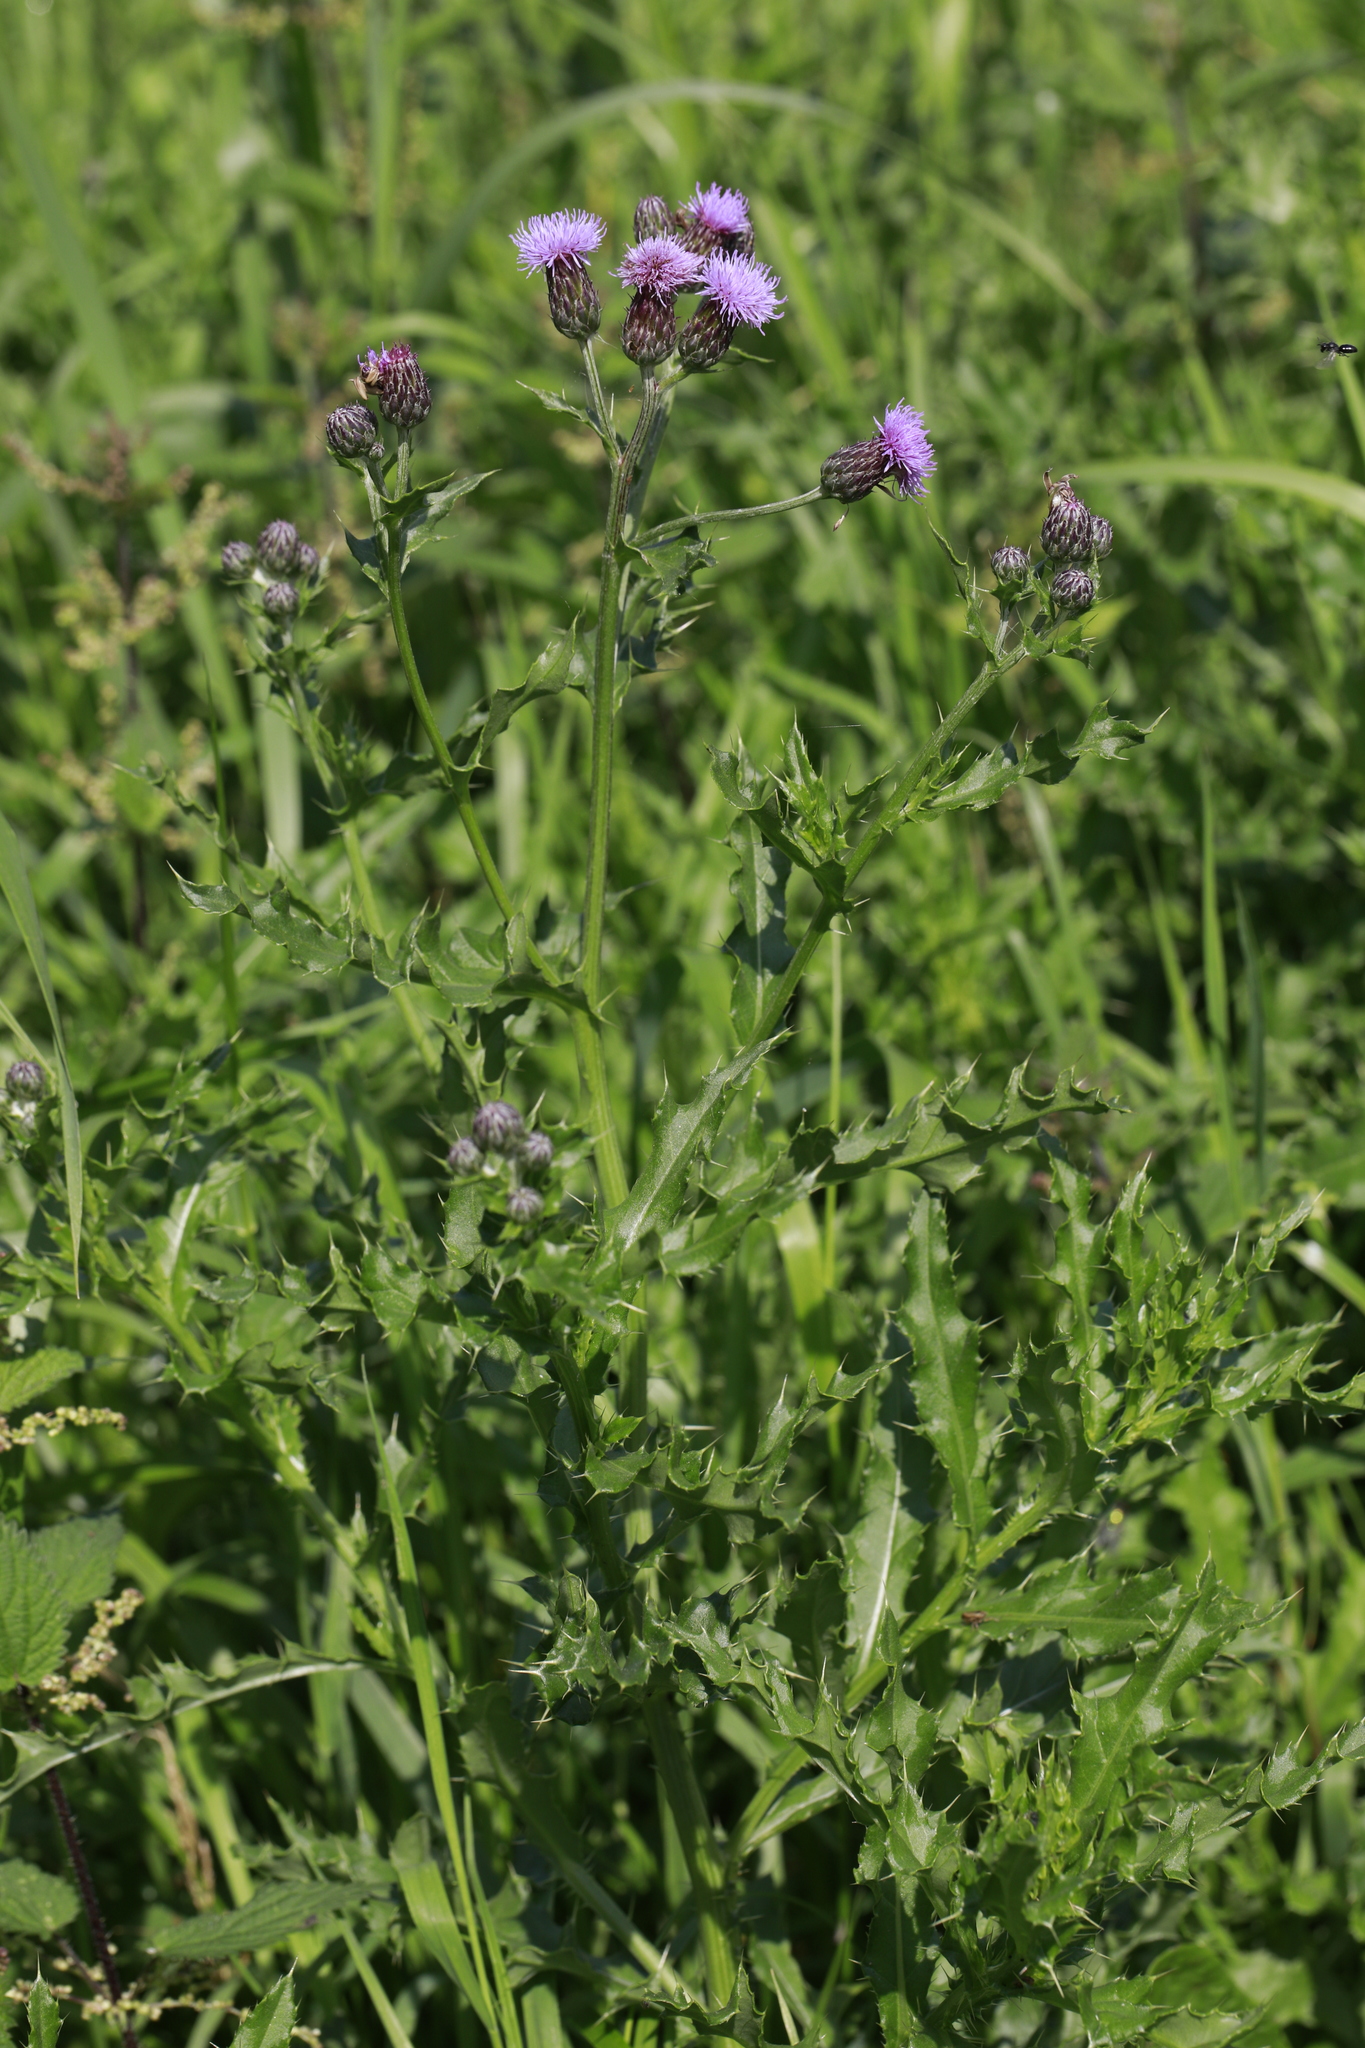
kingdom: Plantae
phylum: Tracheophyta
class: Magnoliopsida
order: Asterales
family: Asteraceae
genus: Cirsium
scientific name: Cirsium arvense
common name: Creeping thistle
